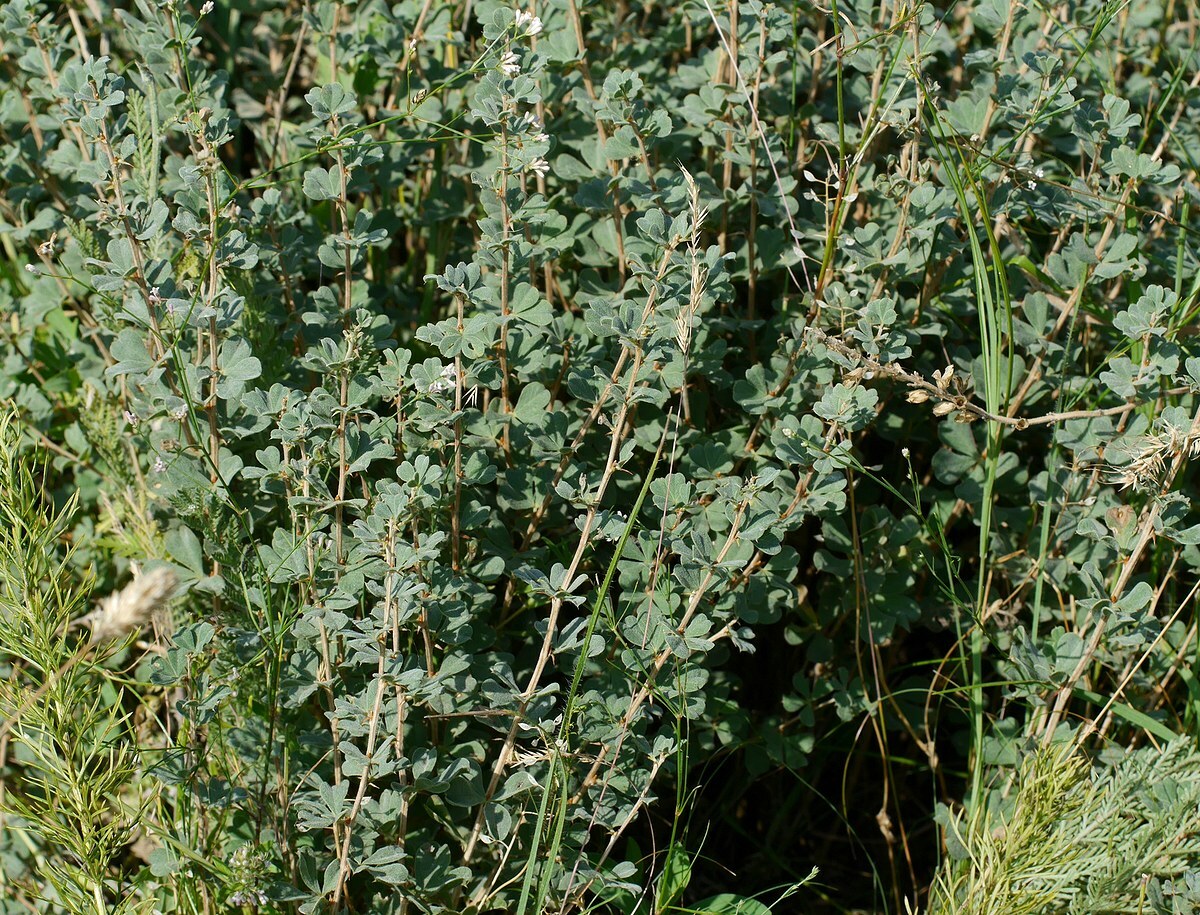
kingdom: Plantae
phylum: Tracheophyta
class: Magnoliopsida
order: Fabales
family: Fabaceae
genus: Caragana
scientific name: Caragana frutex
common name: Russian peashrub
